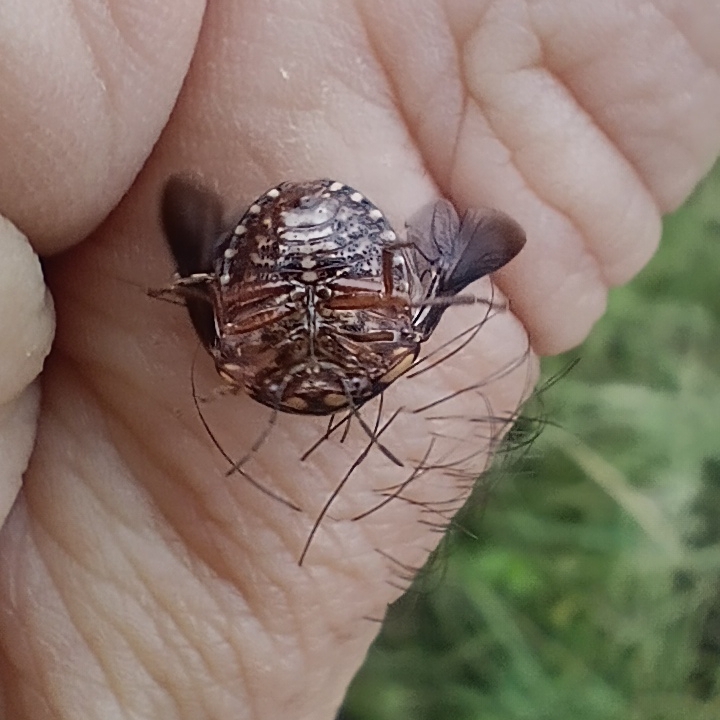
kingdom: Animalia
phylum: Arthropoda
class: Insecta
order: Hemiptera
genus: Steganocerus
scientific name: Steganocerus multipunctatus
